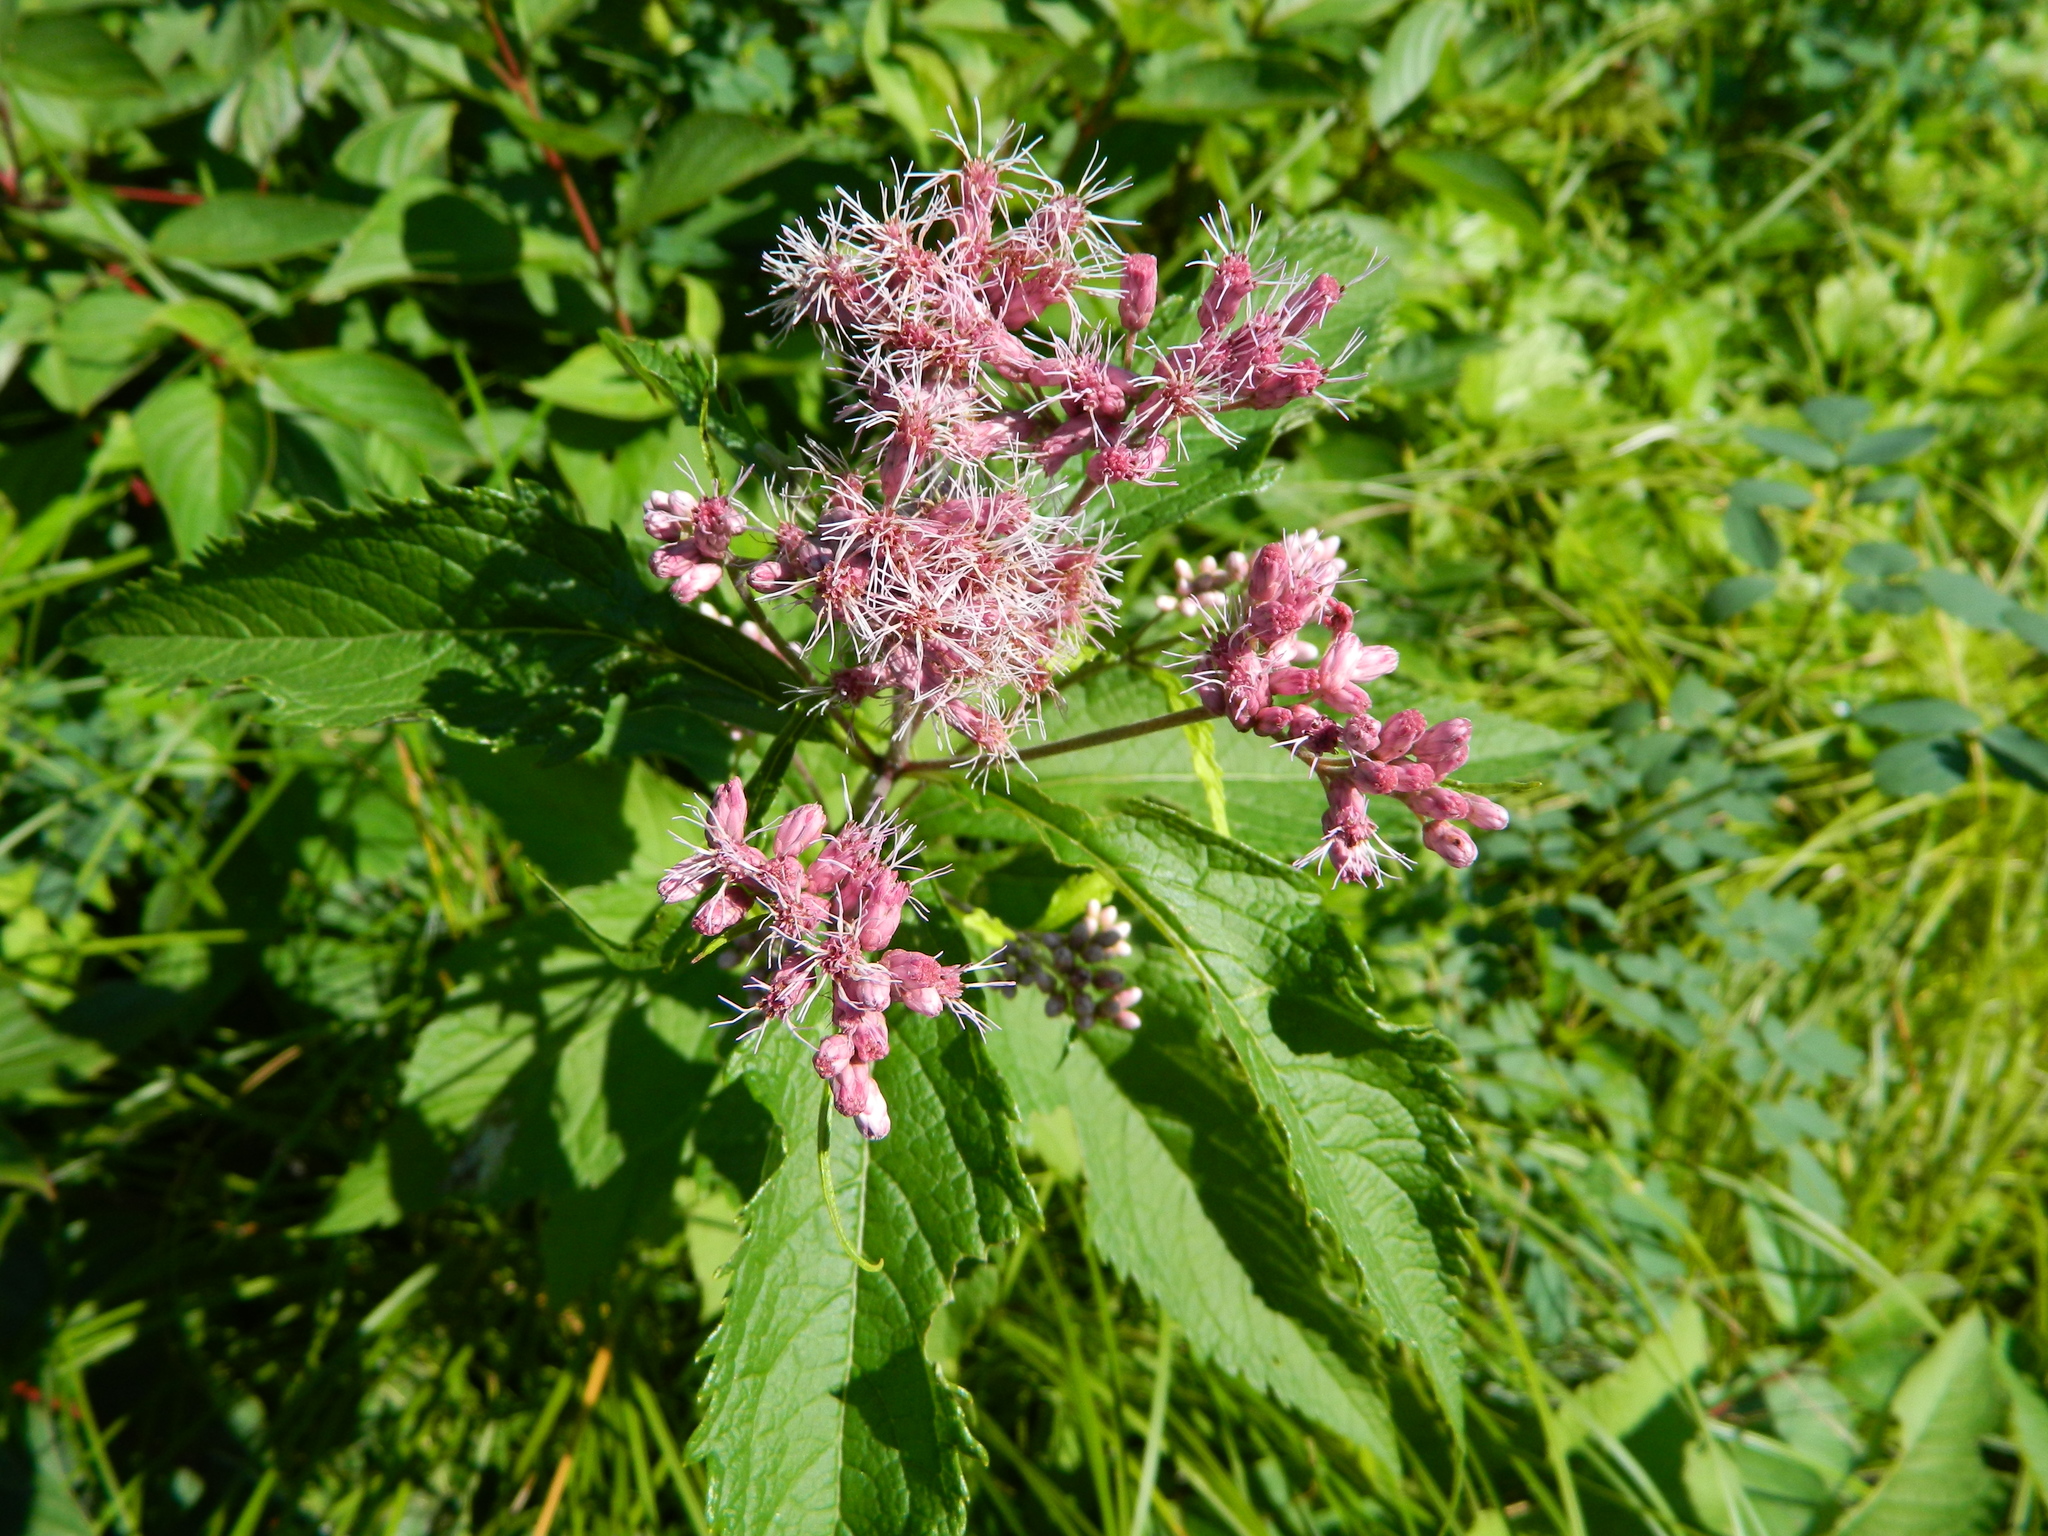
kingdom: Plantae
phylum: Tracheophyta
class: Magnoliopsida
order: Asterales
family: Asteraceae
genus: Eutrochium
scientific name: Eutrochium maculatum
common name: Spotted joe pye weed
